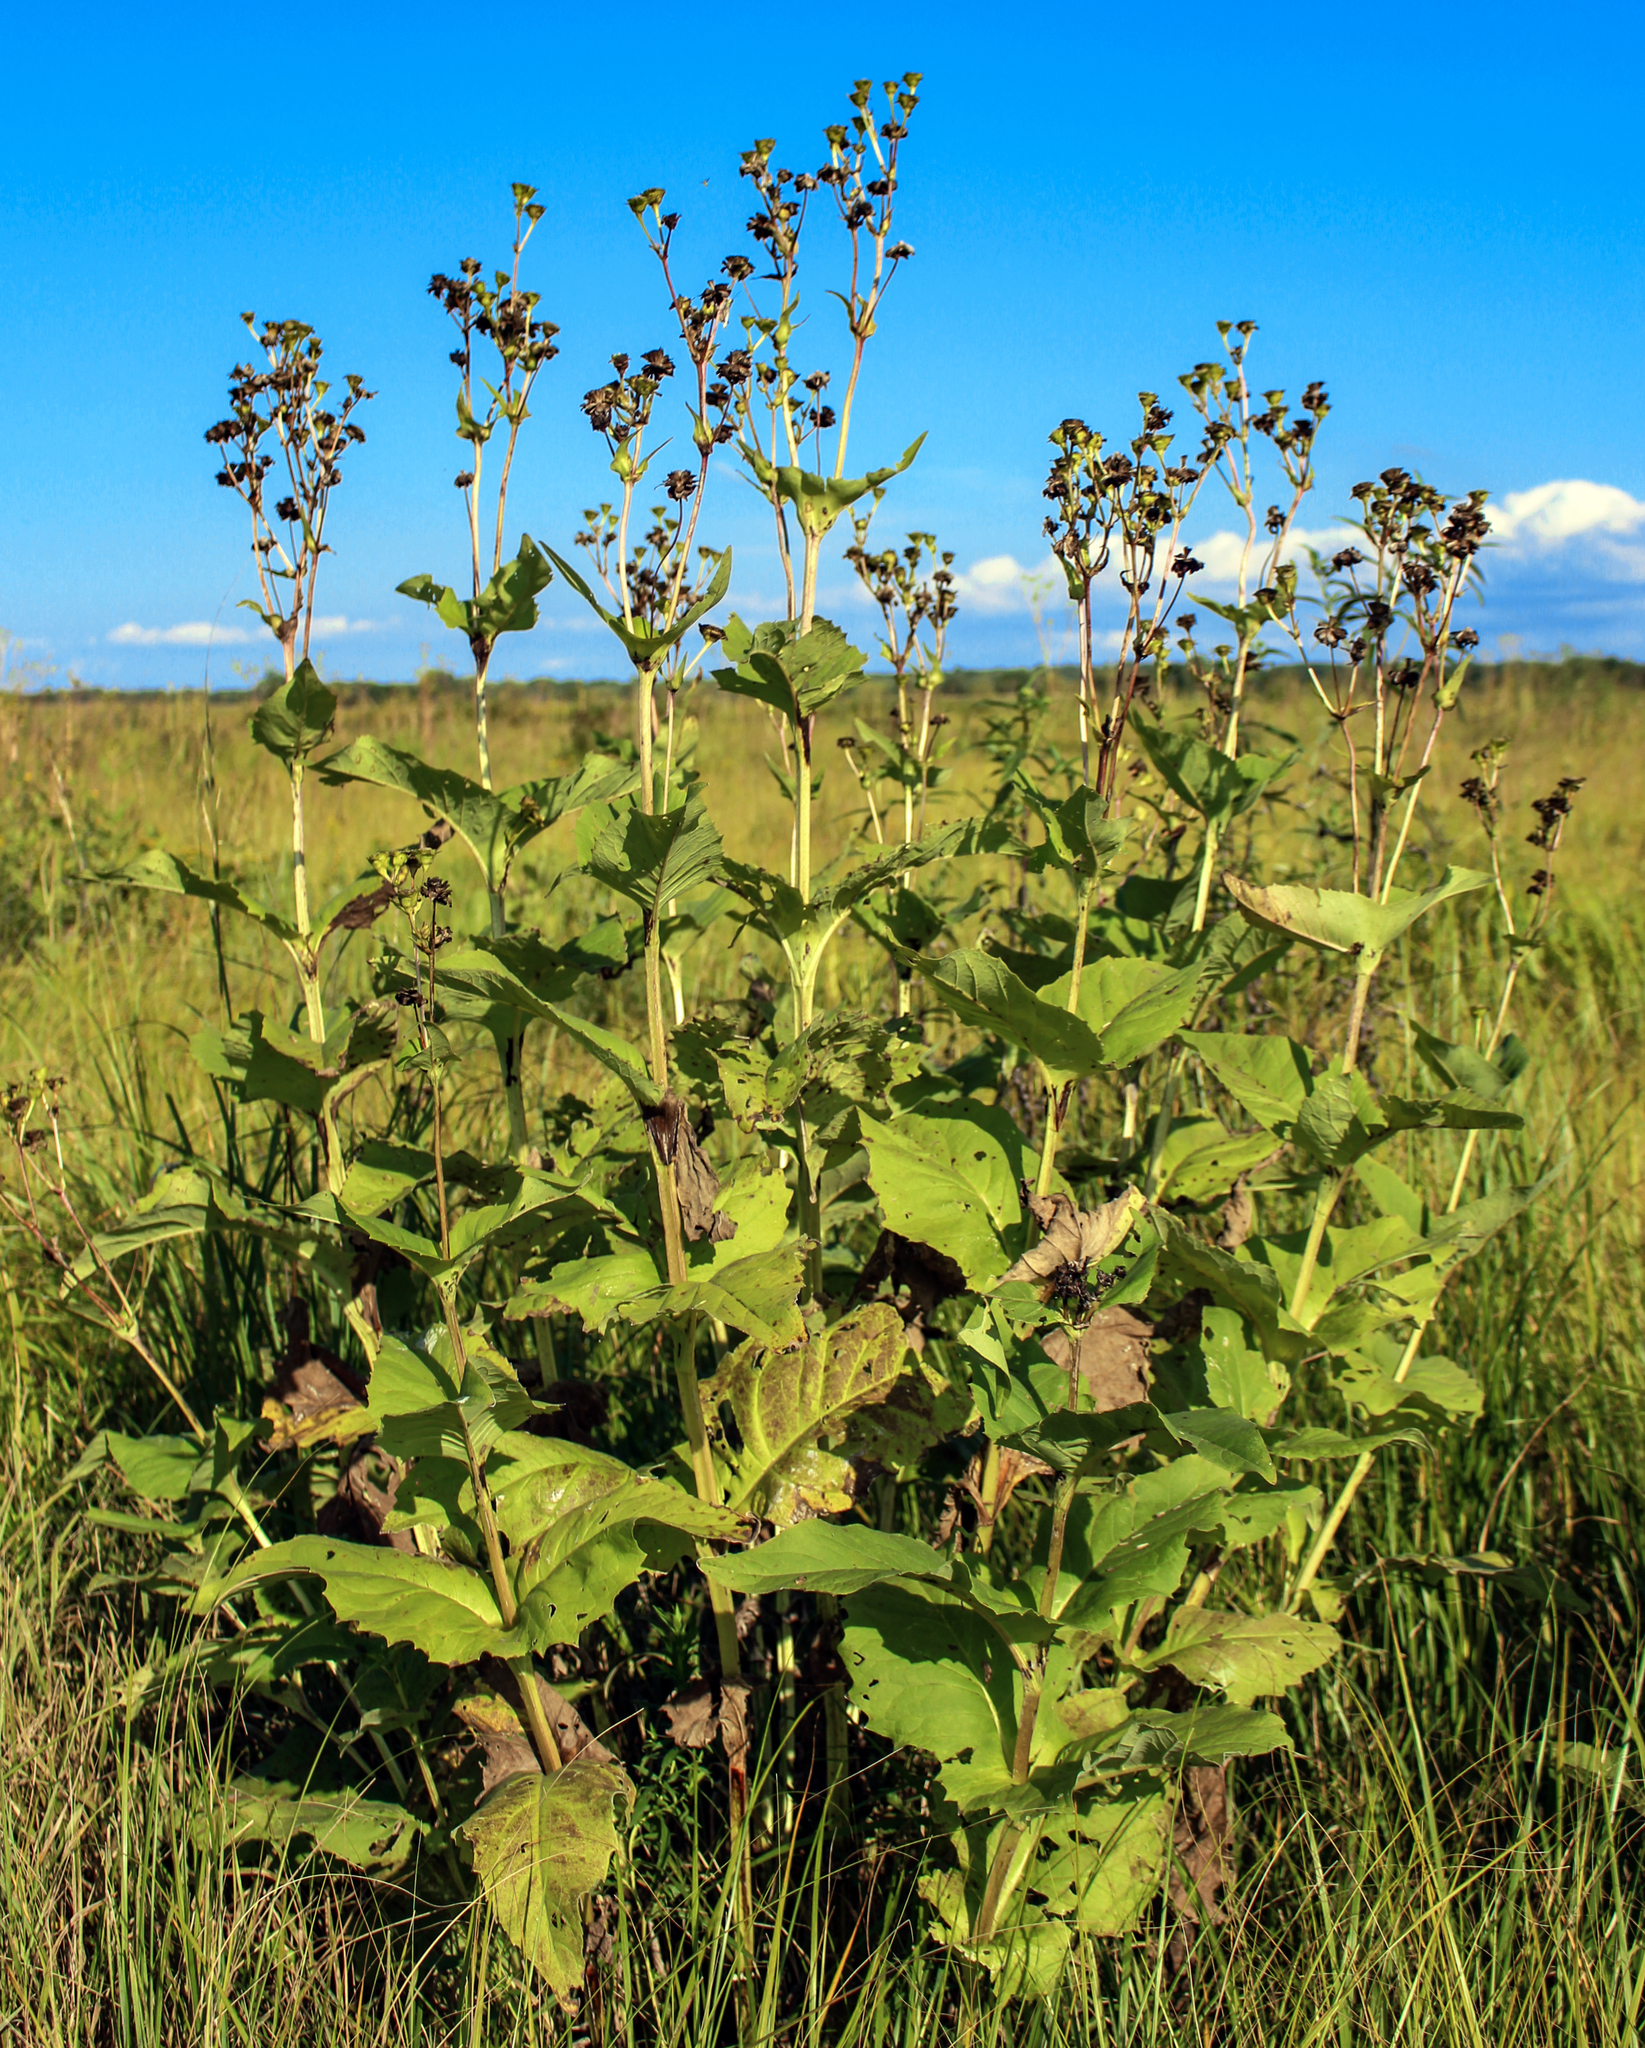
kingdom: Plantae
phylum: Tracheophyta
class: Magnoliopsida
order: Asterales
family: Asteraceae
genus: Silphium
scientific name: Silphium perfoliatum
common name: Cup-plant
